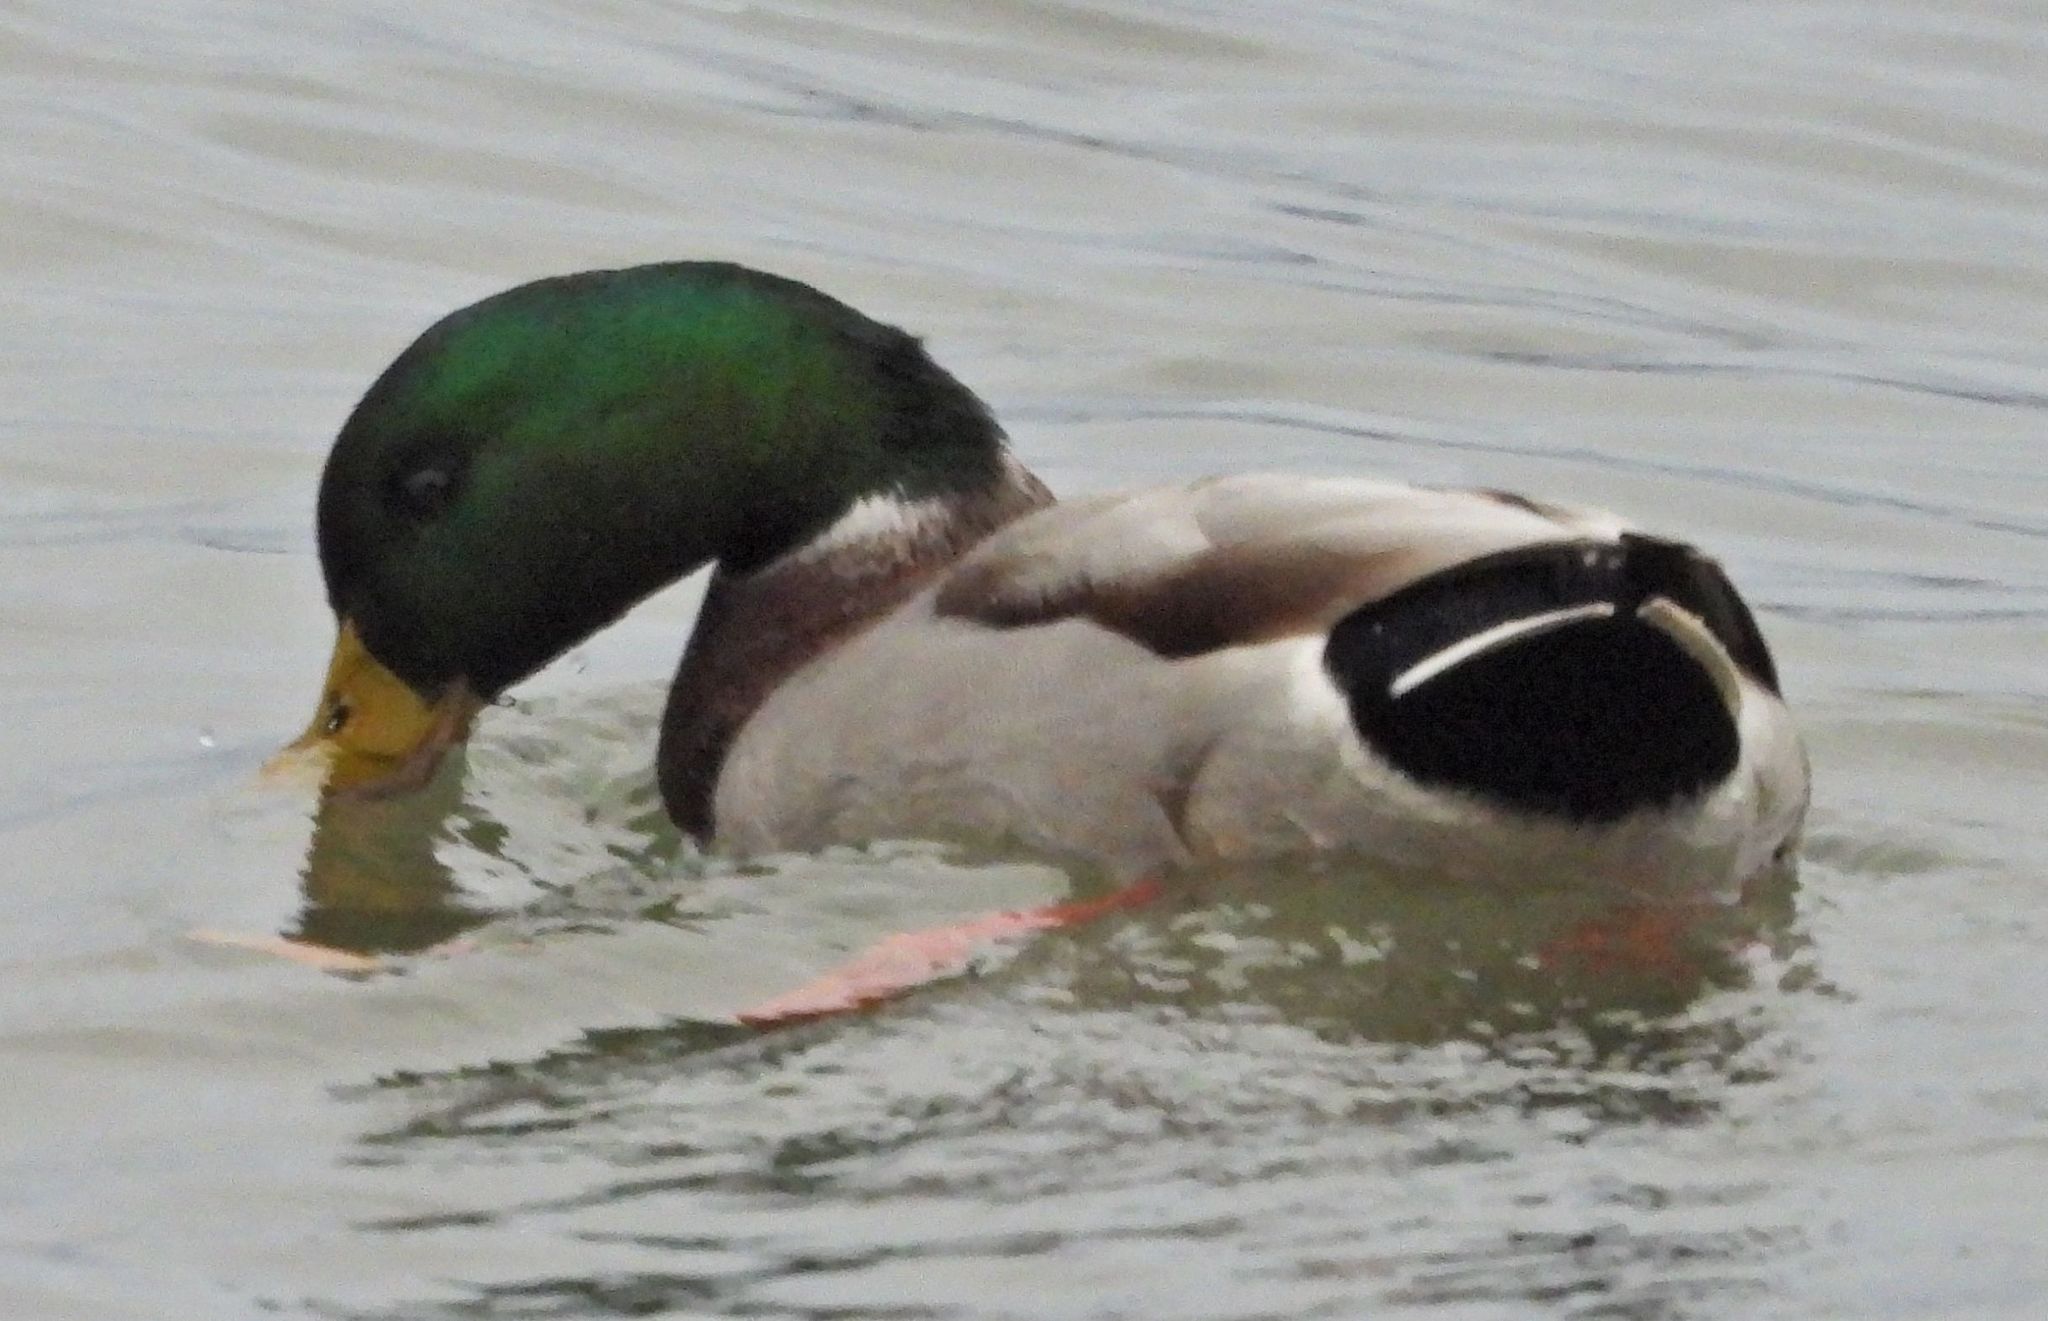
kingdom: Animalia
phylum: Chordata
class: Aves
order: Anseriformes
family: Anatidae
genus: Anas
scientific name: Anas platyrhynchos
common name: Mallard
